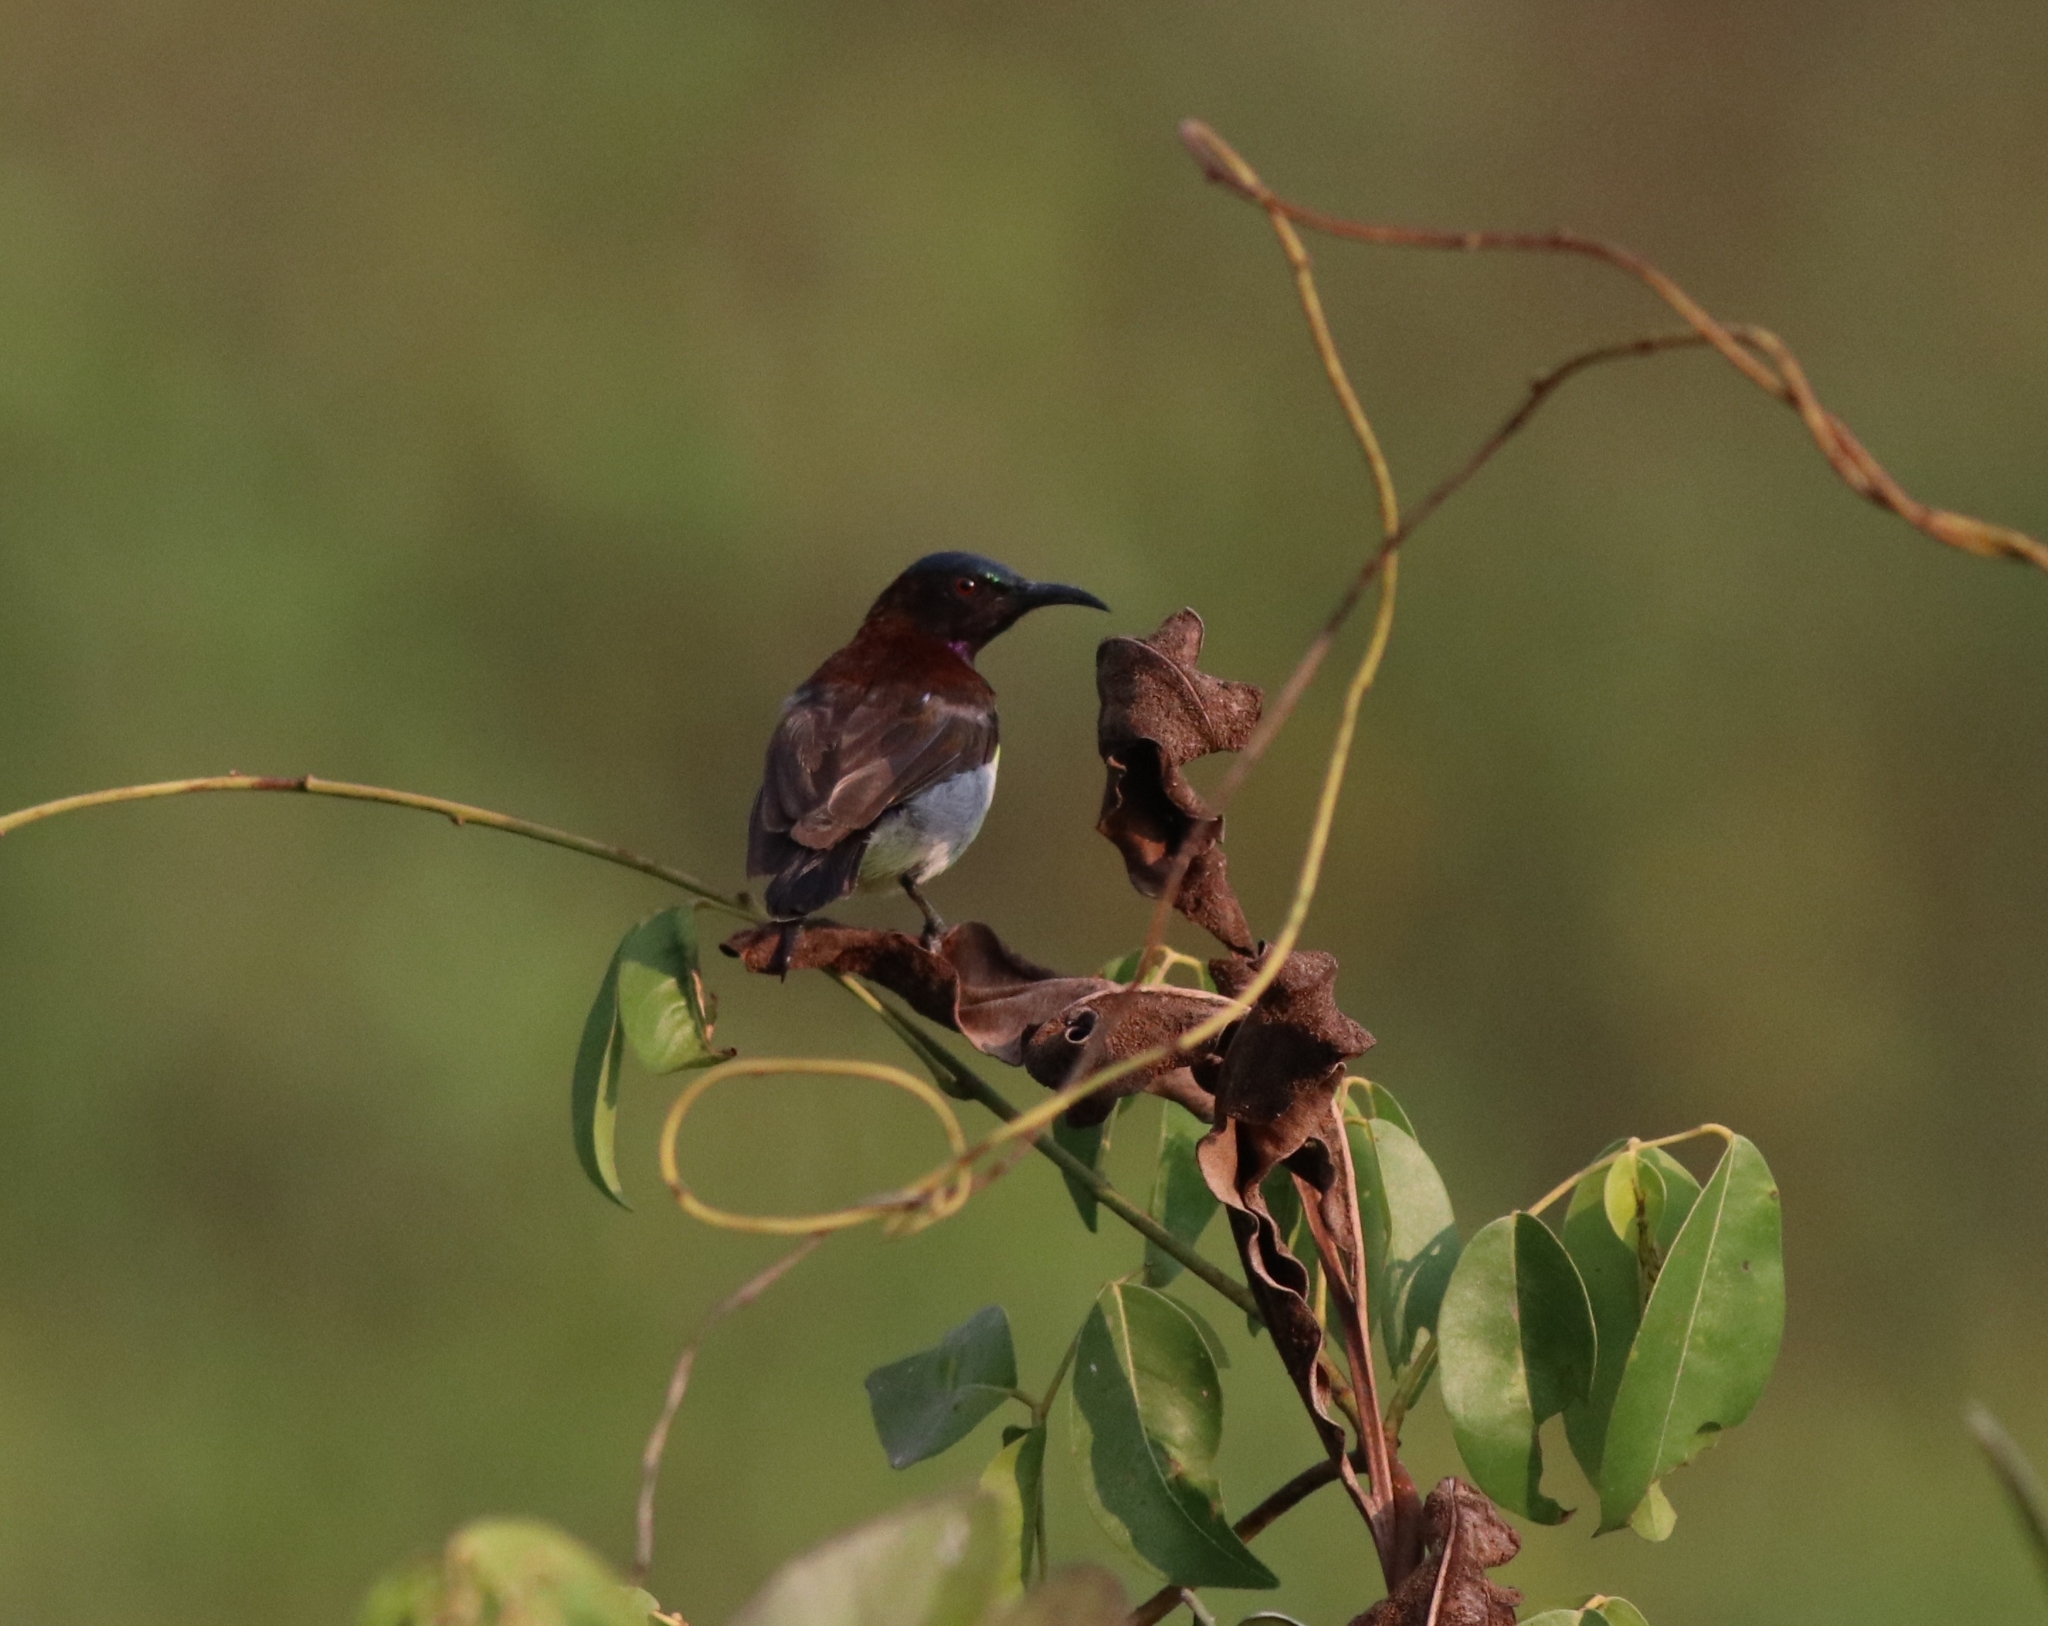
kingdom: Animalia
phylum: Chordata
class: Aves
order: Passeriformes
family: Nectariniidae
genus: Leptocoma
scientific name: Leptocoma zeylonica
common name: Purple-rumped sunbird
